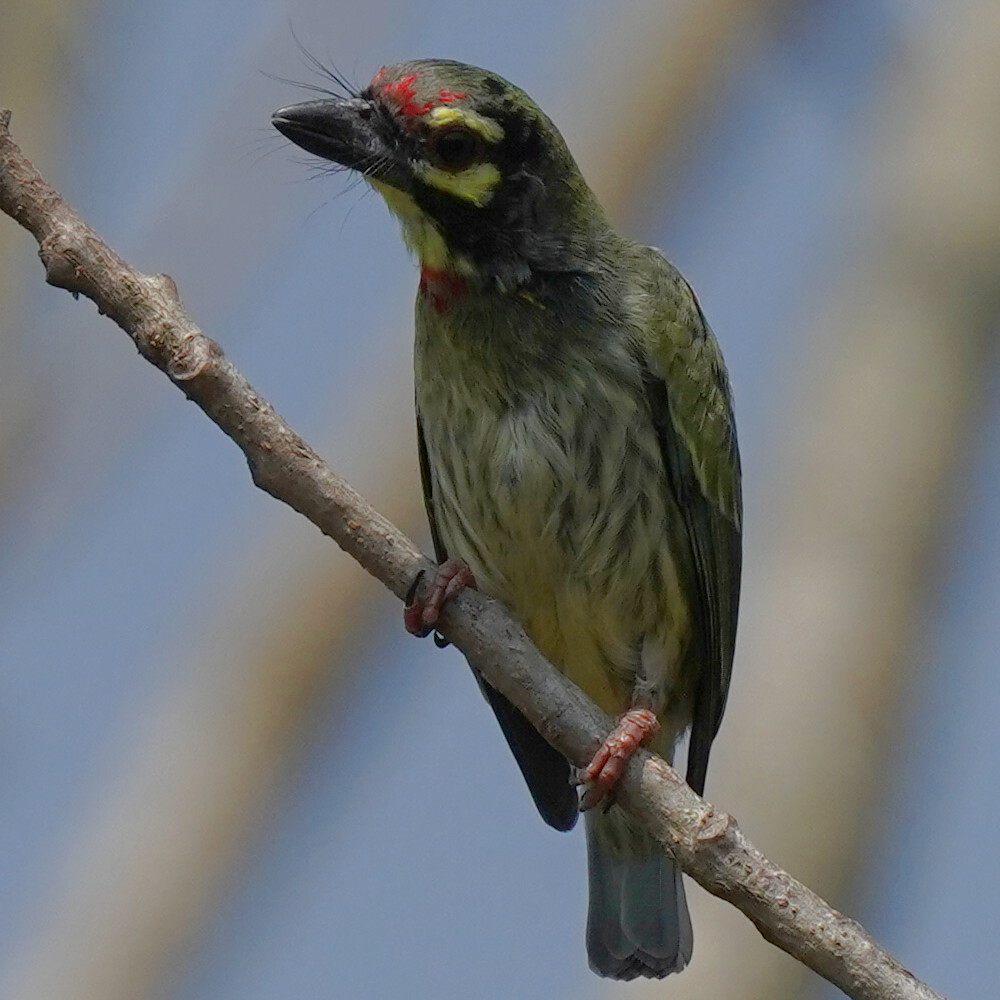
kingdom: Animalia
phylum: Chordata
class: Aves
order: Piciformes
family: Megalaimidae
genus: Psilopogon
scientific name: Psilopogon haemacephalus
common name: Coppersmith barbet
